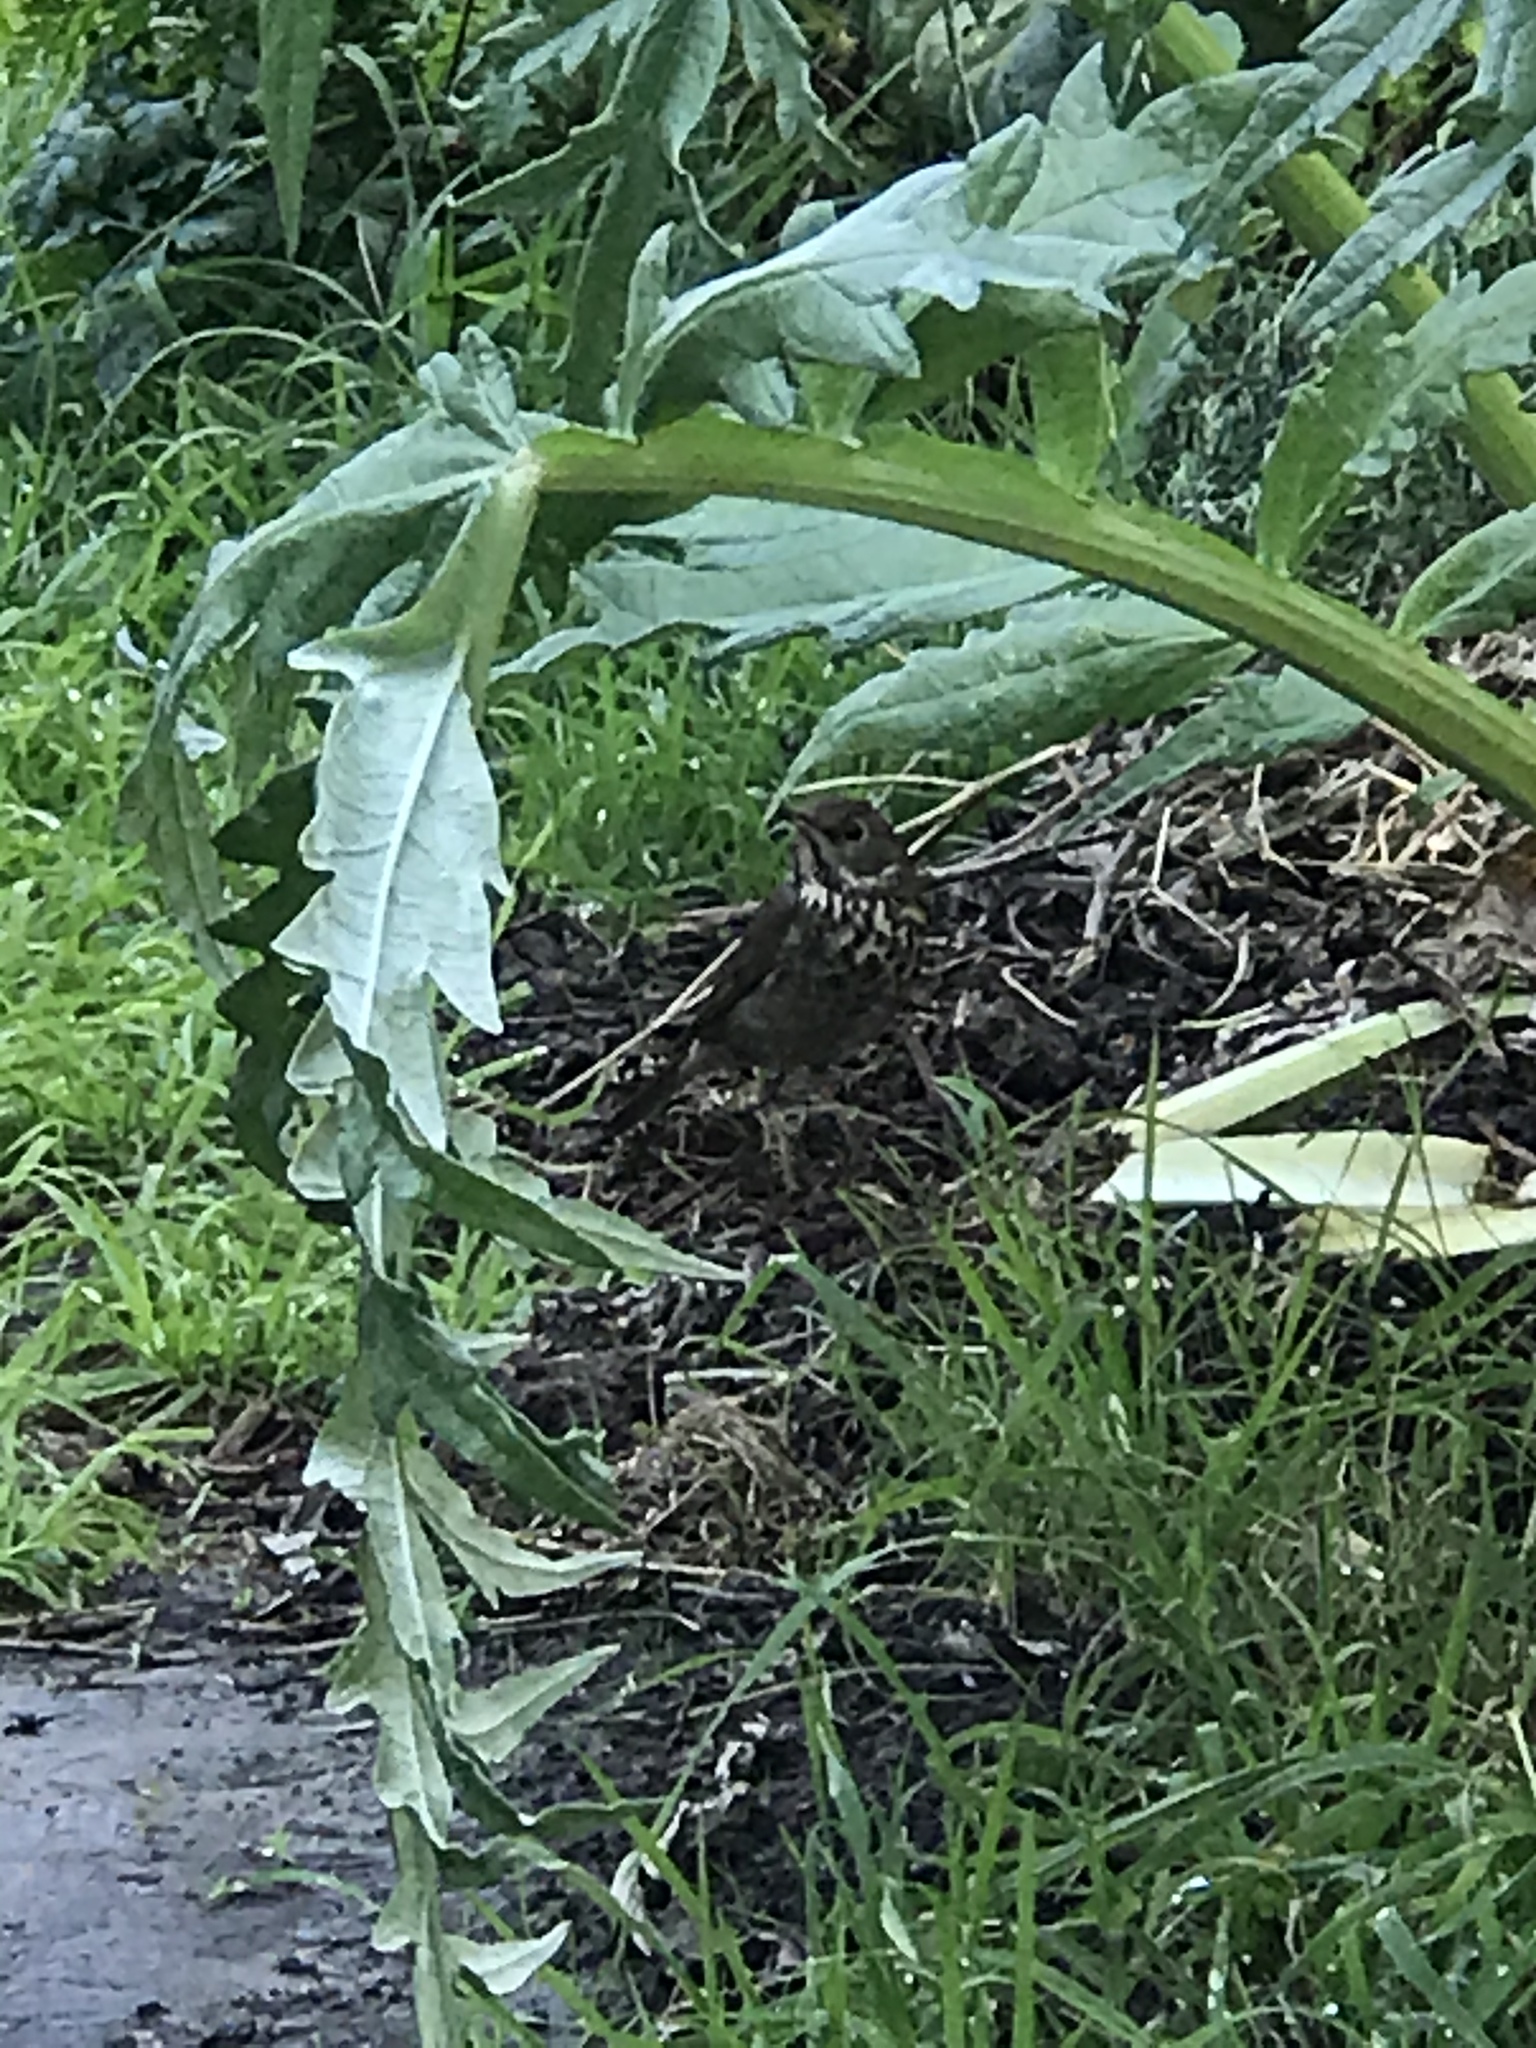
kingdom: Animalia
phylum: Chordata
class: Aves
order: Passeriformes
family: Turdidae
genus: Catharus
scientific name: Catharus guttatus
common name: Hermit thrush
